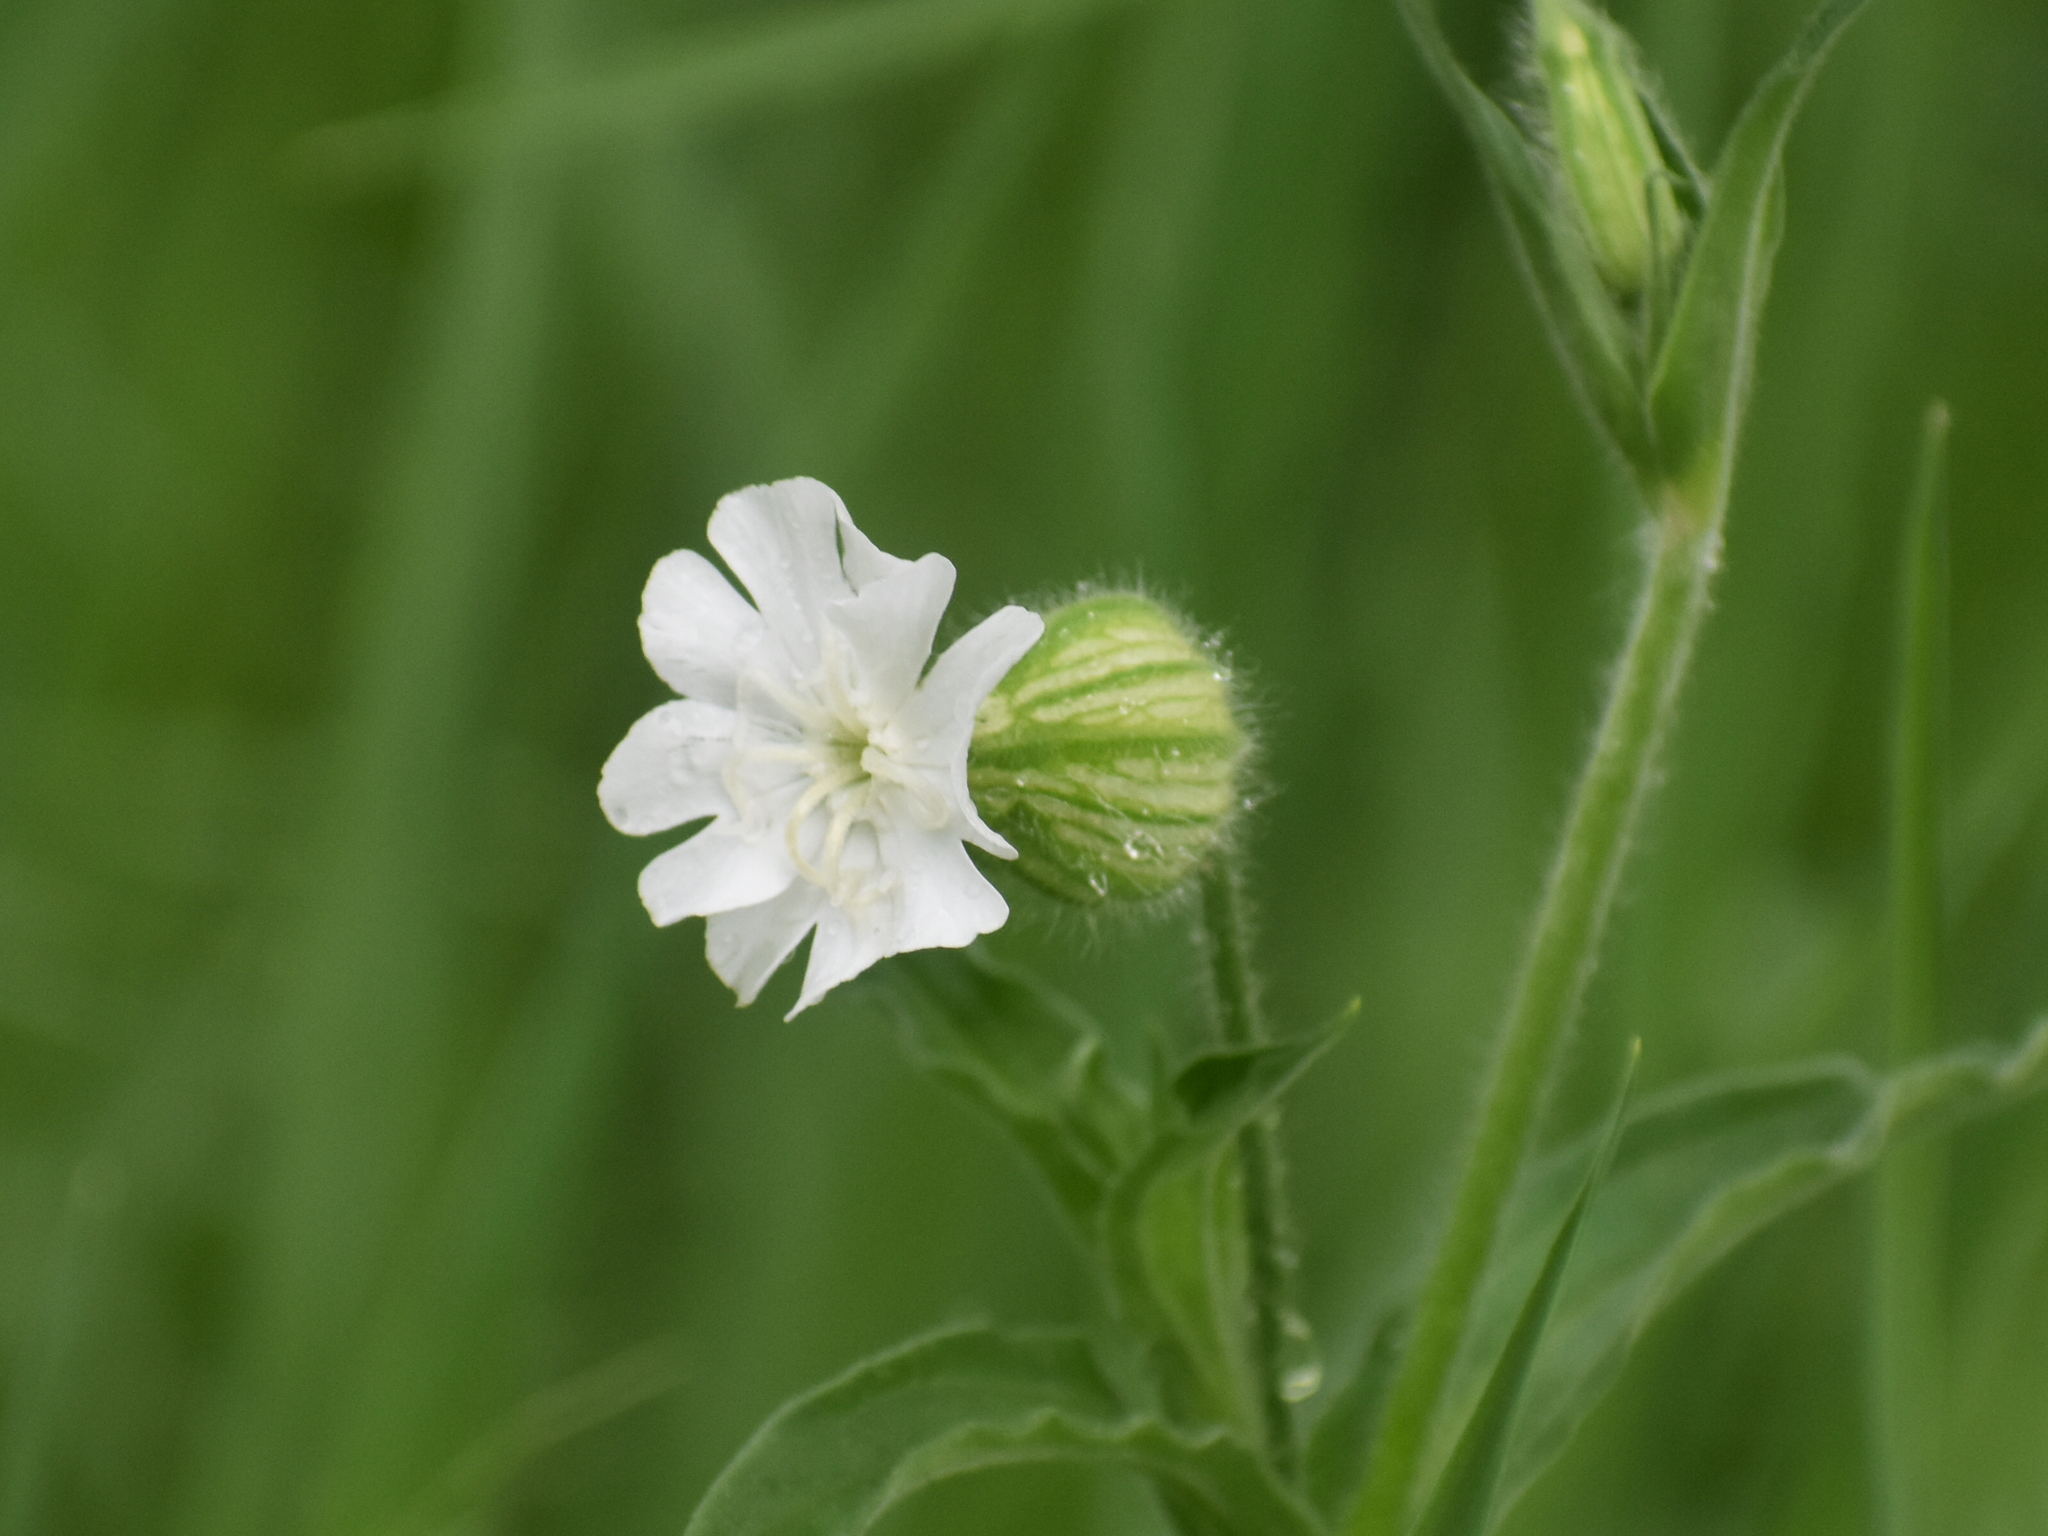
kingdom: Plantae
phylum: Tracheophyta
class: Magnoliopsida
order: Caryophyllales
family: Caryophyllaceae
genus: Silene
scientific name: Silene latifolia
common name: White campion
